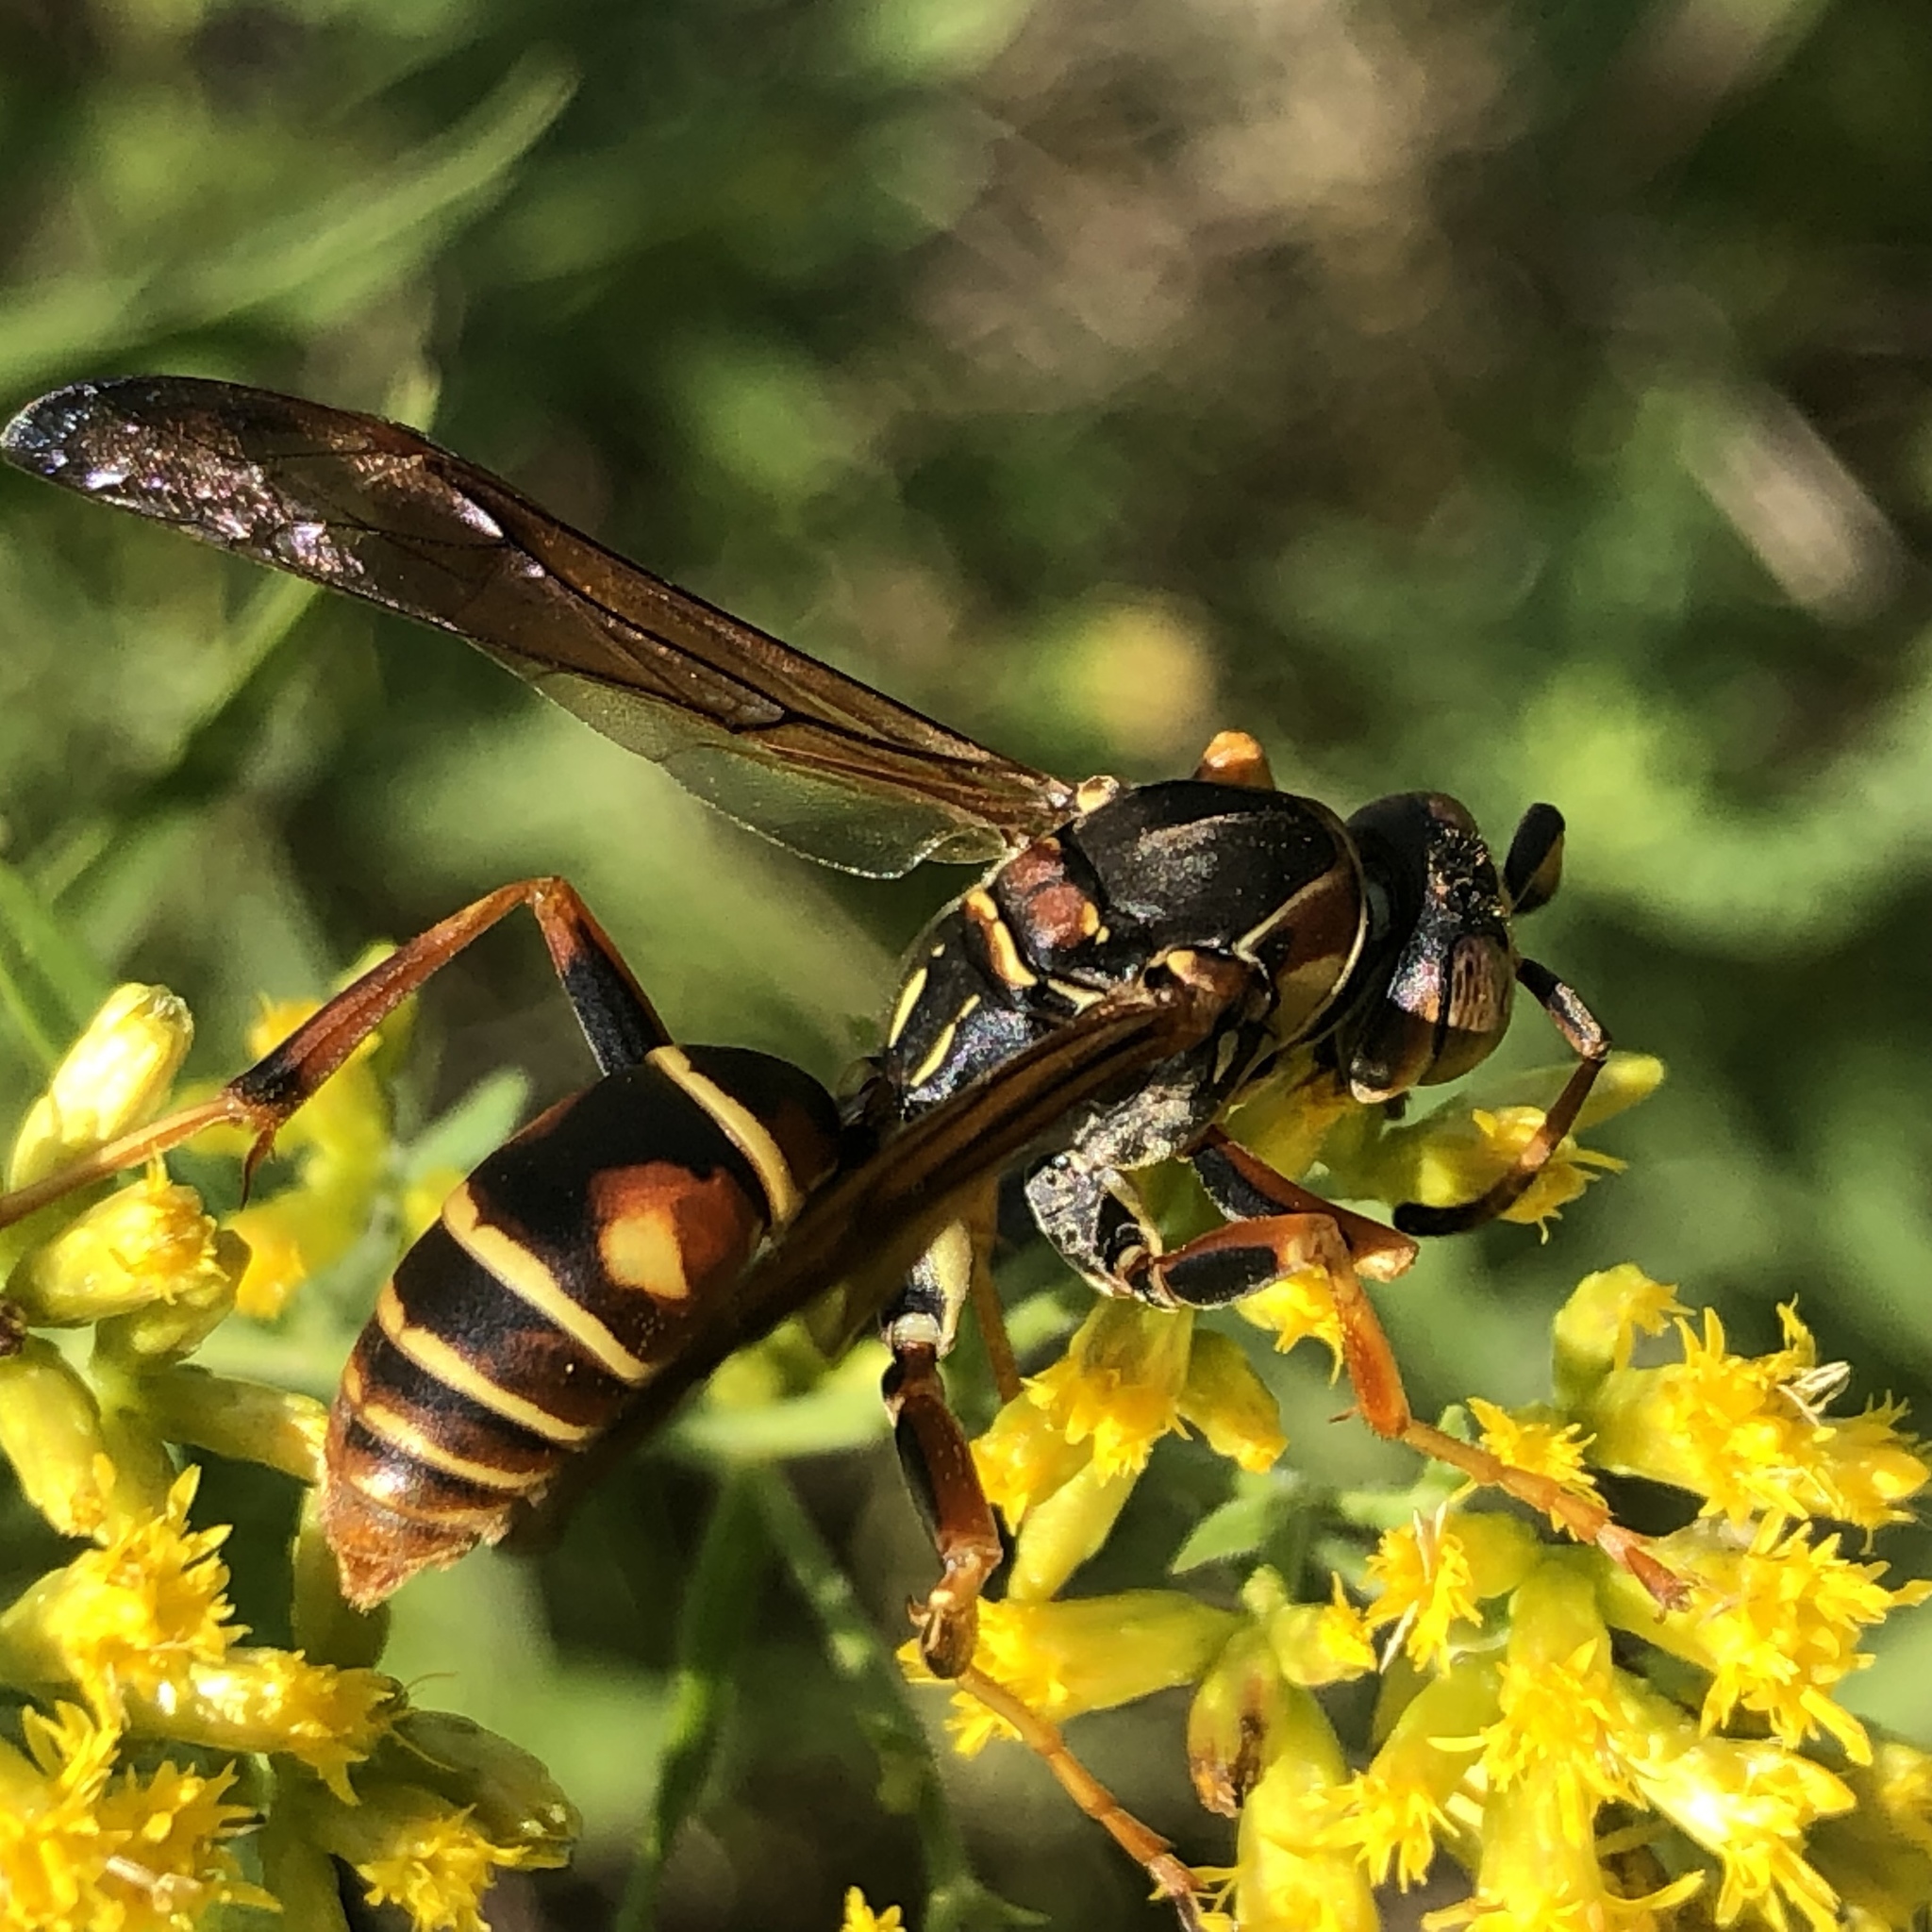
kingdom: Animalia
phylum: Arthropoda
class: Insecta
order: Hymenoptera
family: Eumenidae
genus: Polistes
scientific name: Polistes fuscatus
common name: Dark paper wasp
